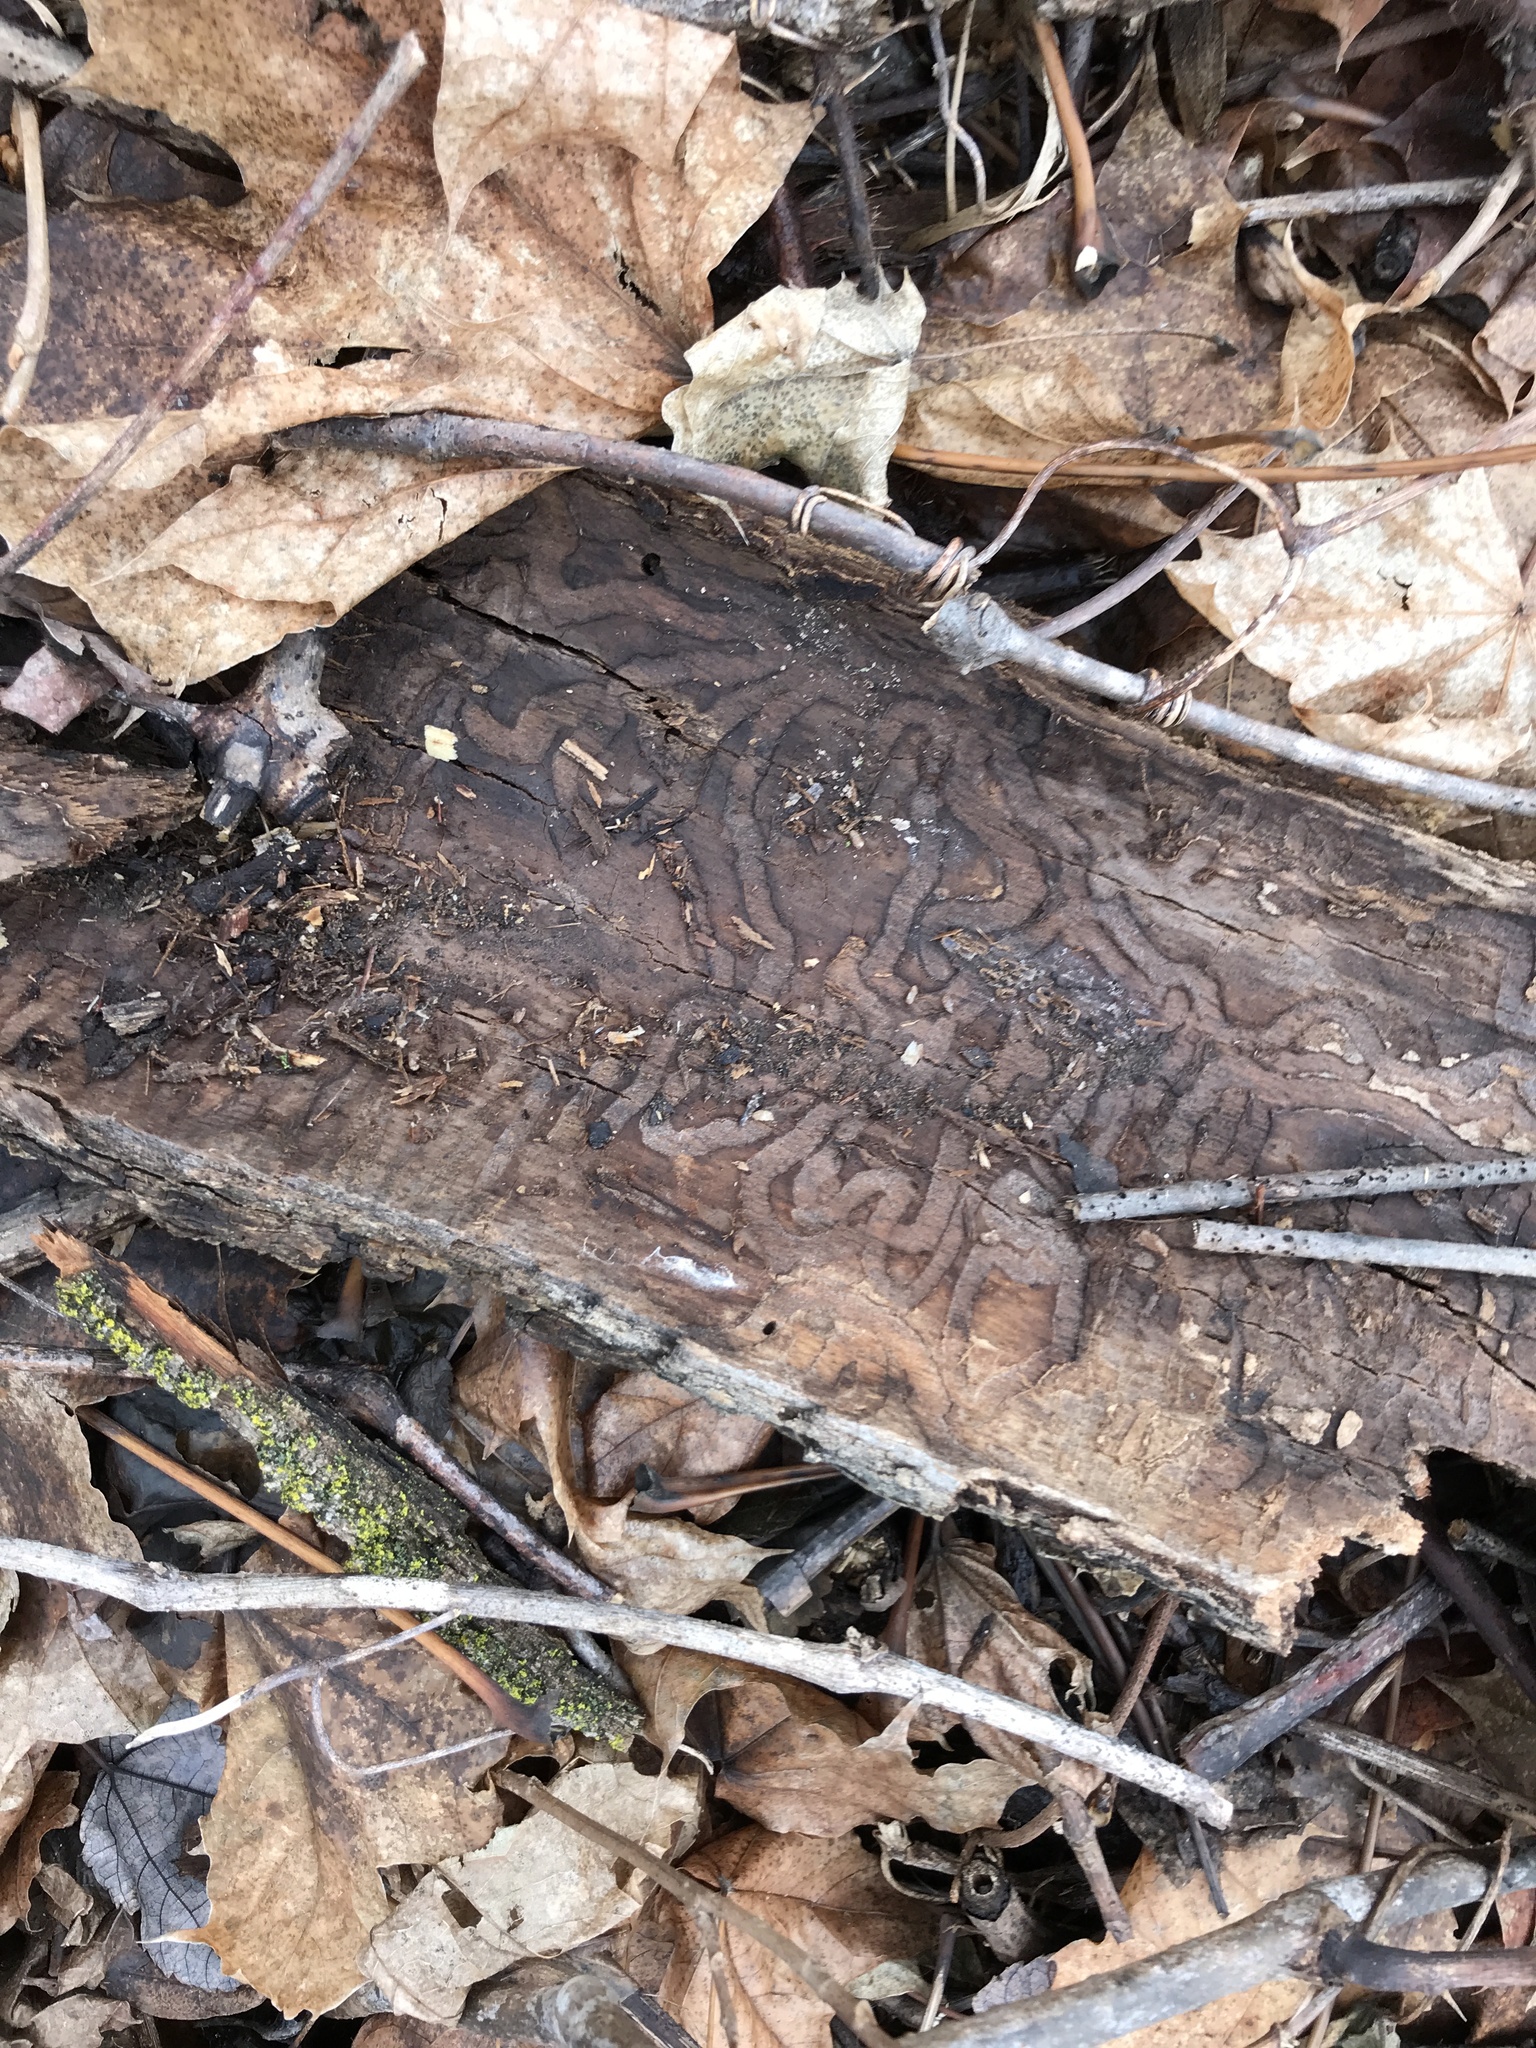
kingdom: Animalia
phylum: Arthropoda
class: Insecta
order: Coleoptera
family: Buprestidae
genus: Agrilus
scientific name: Agrilus planipennis
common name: Emerald ash borer
